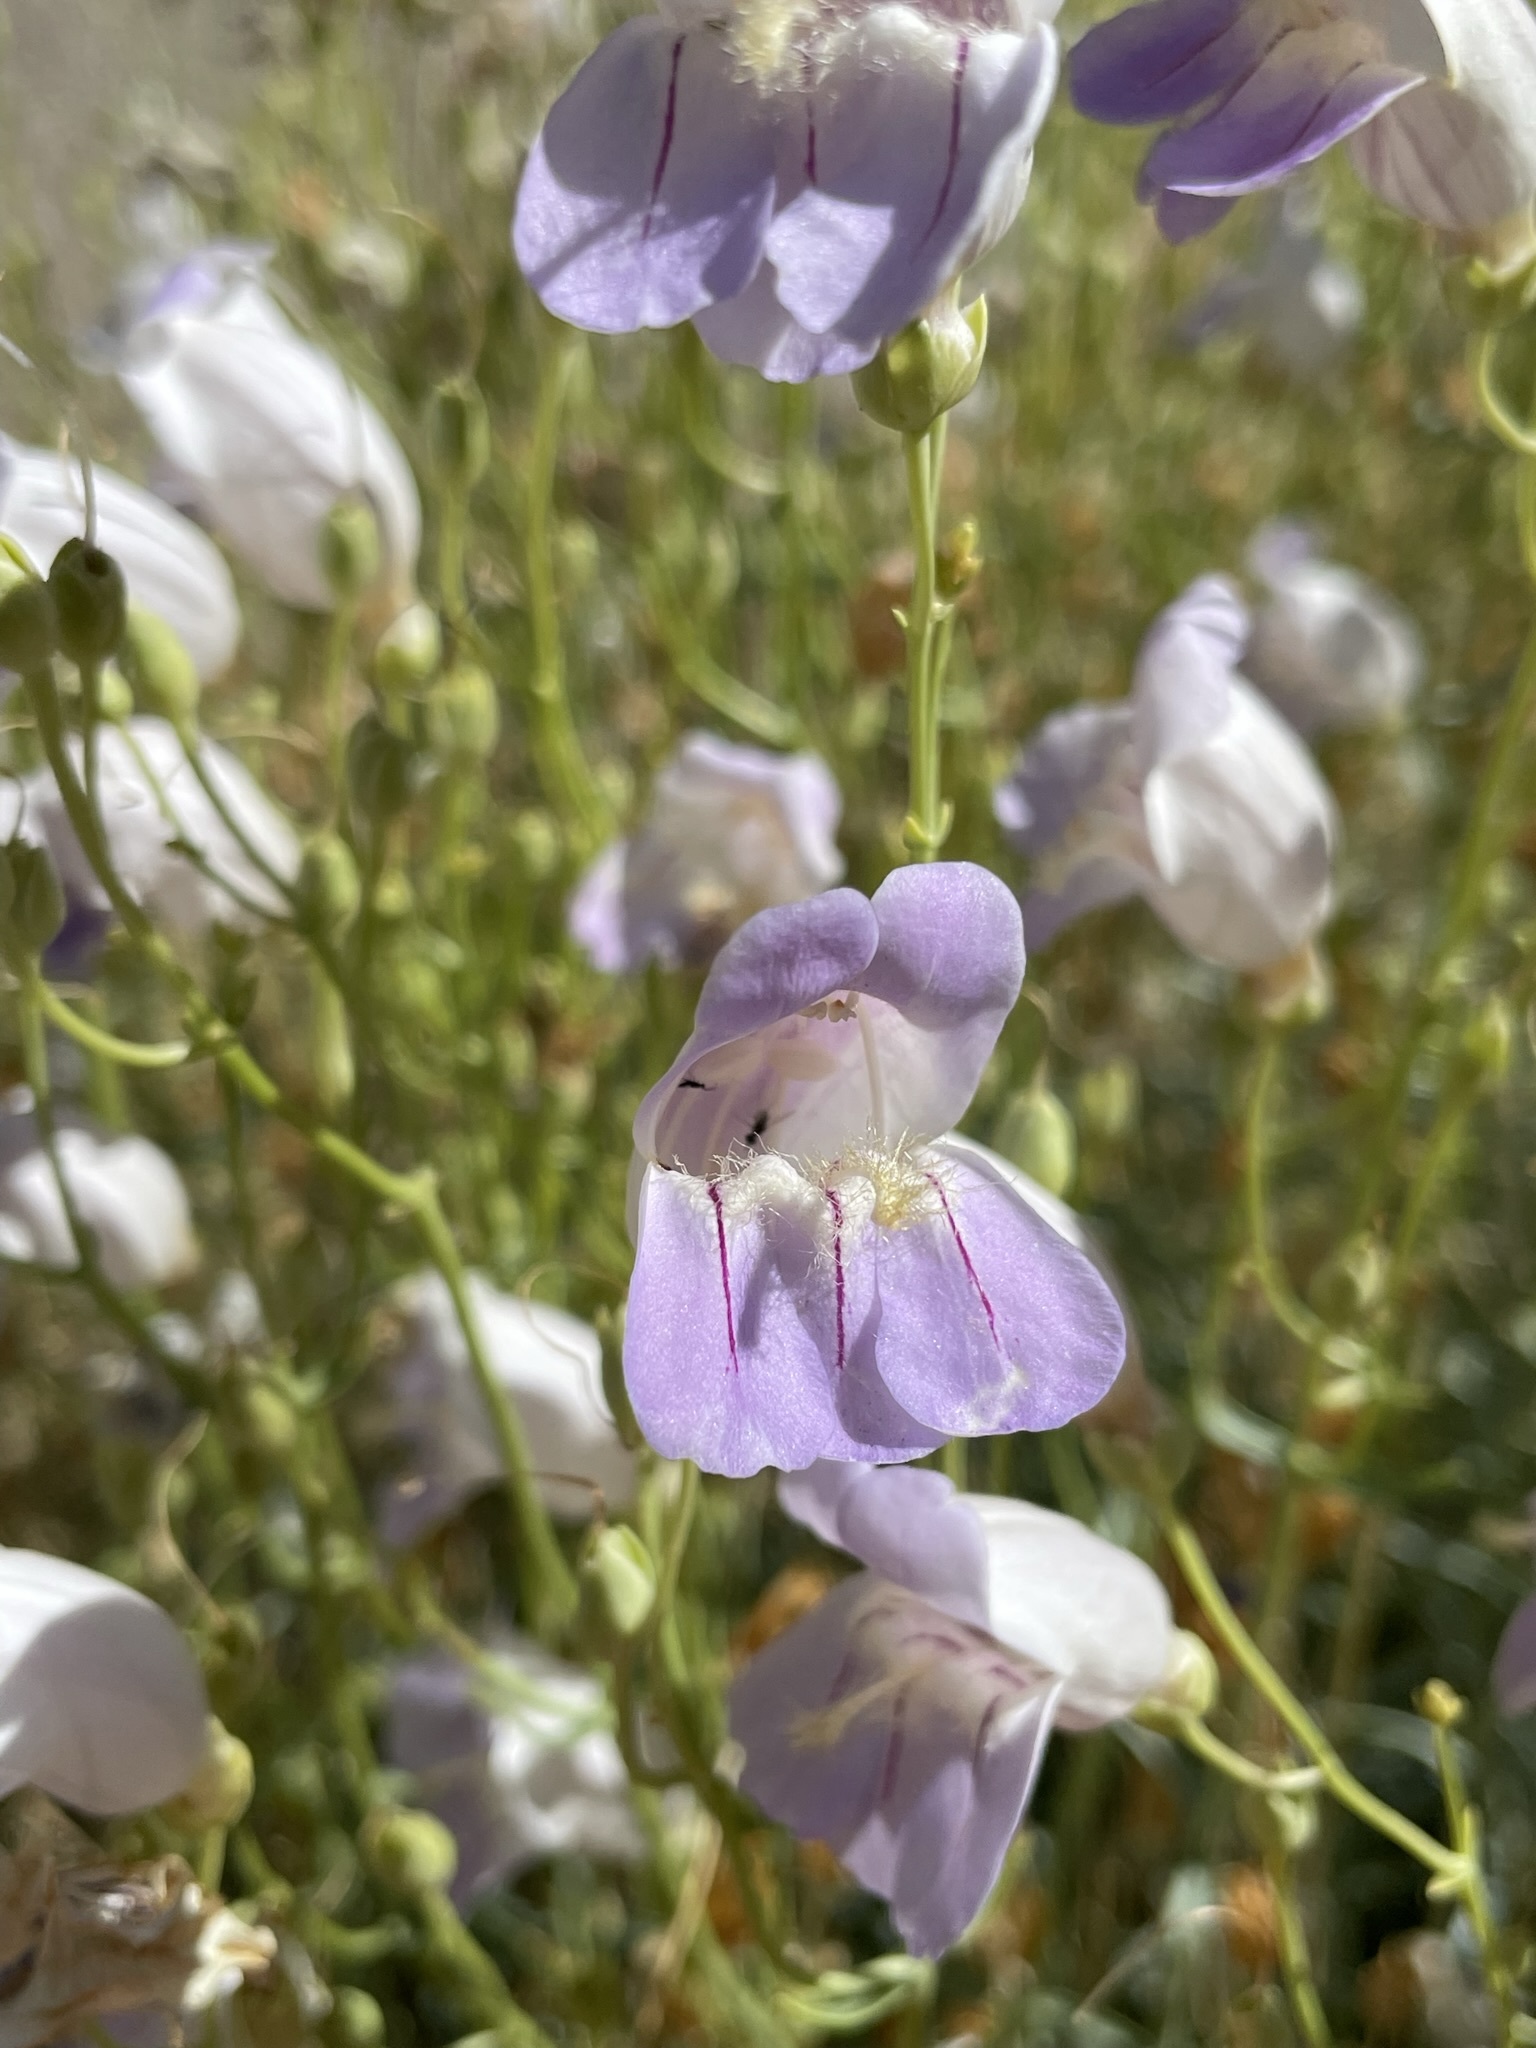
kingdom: Plantae
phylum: Tracheophyta
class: Magnoliopsida
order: Lamiales
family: Plantaginaceae
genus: Penstemon
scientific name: Penstemon fruticiformis
